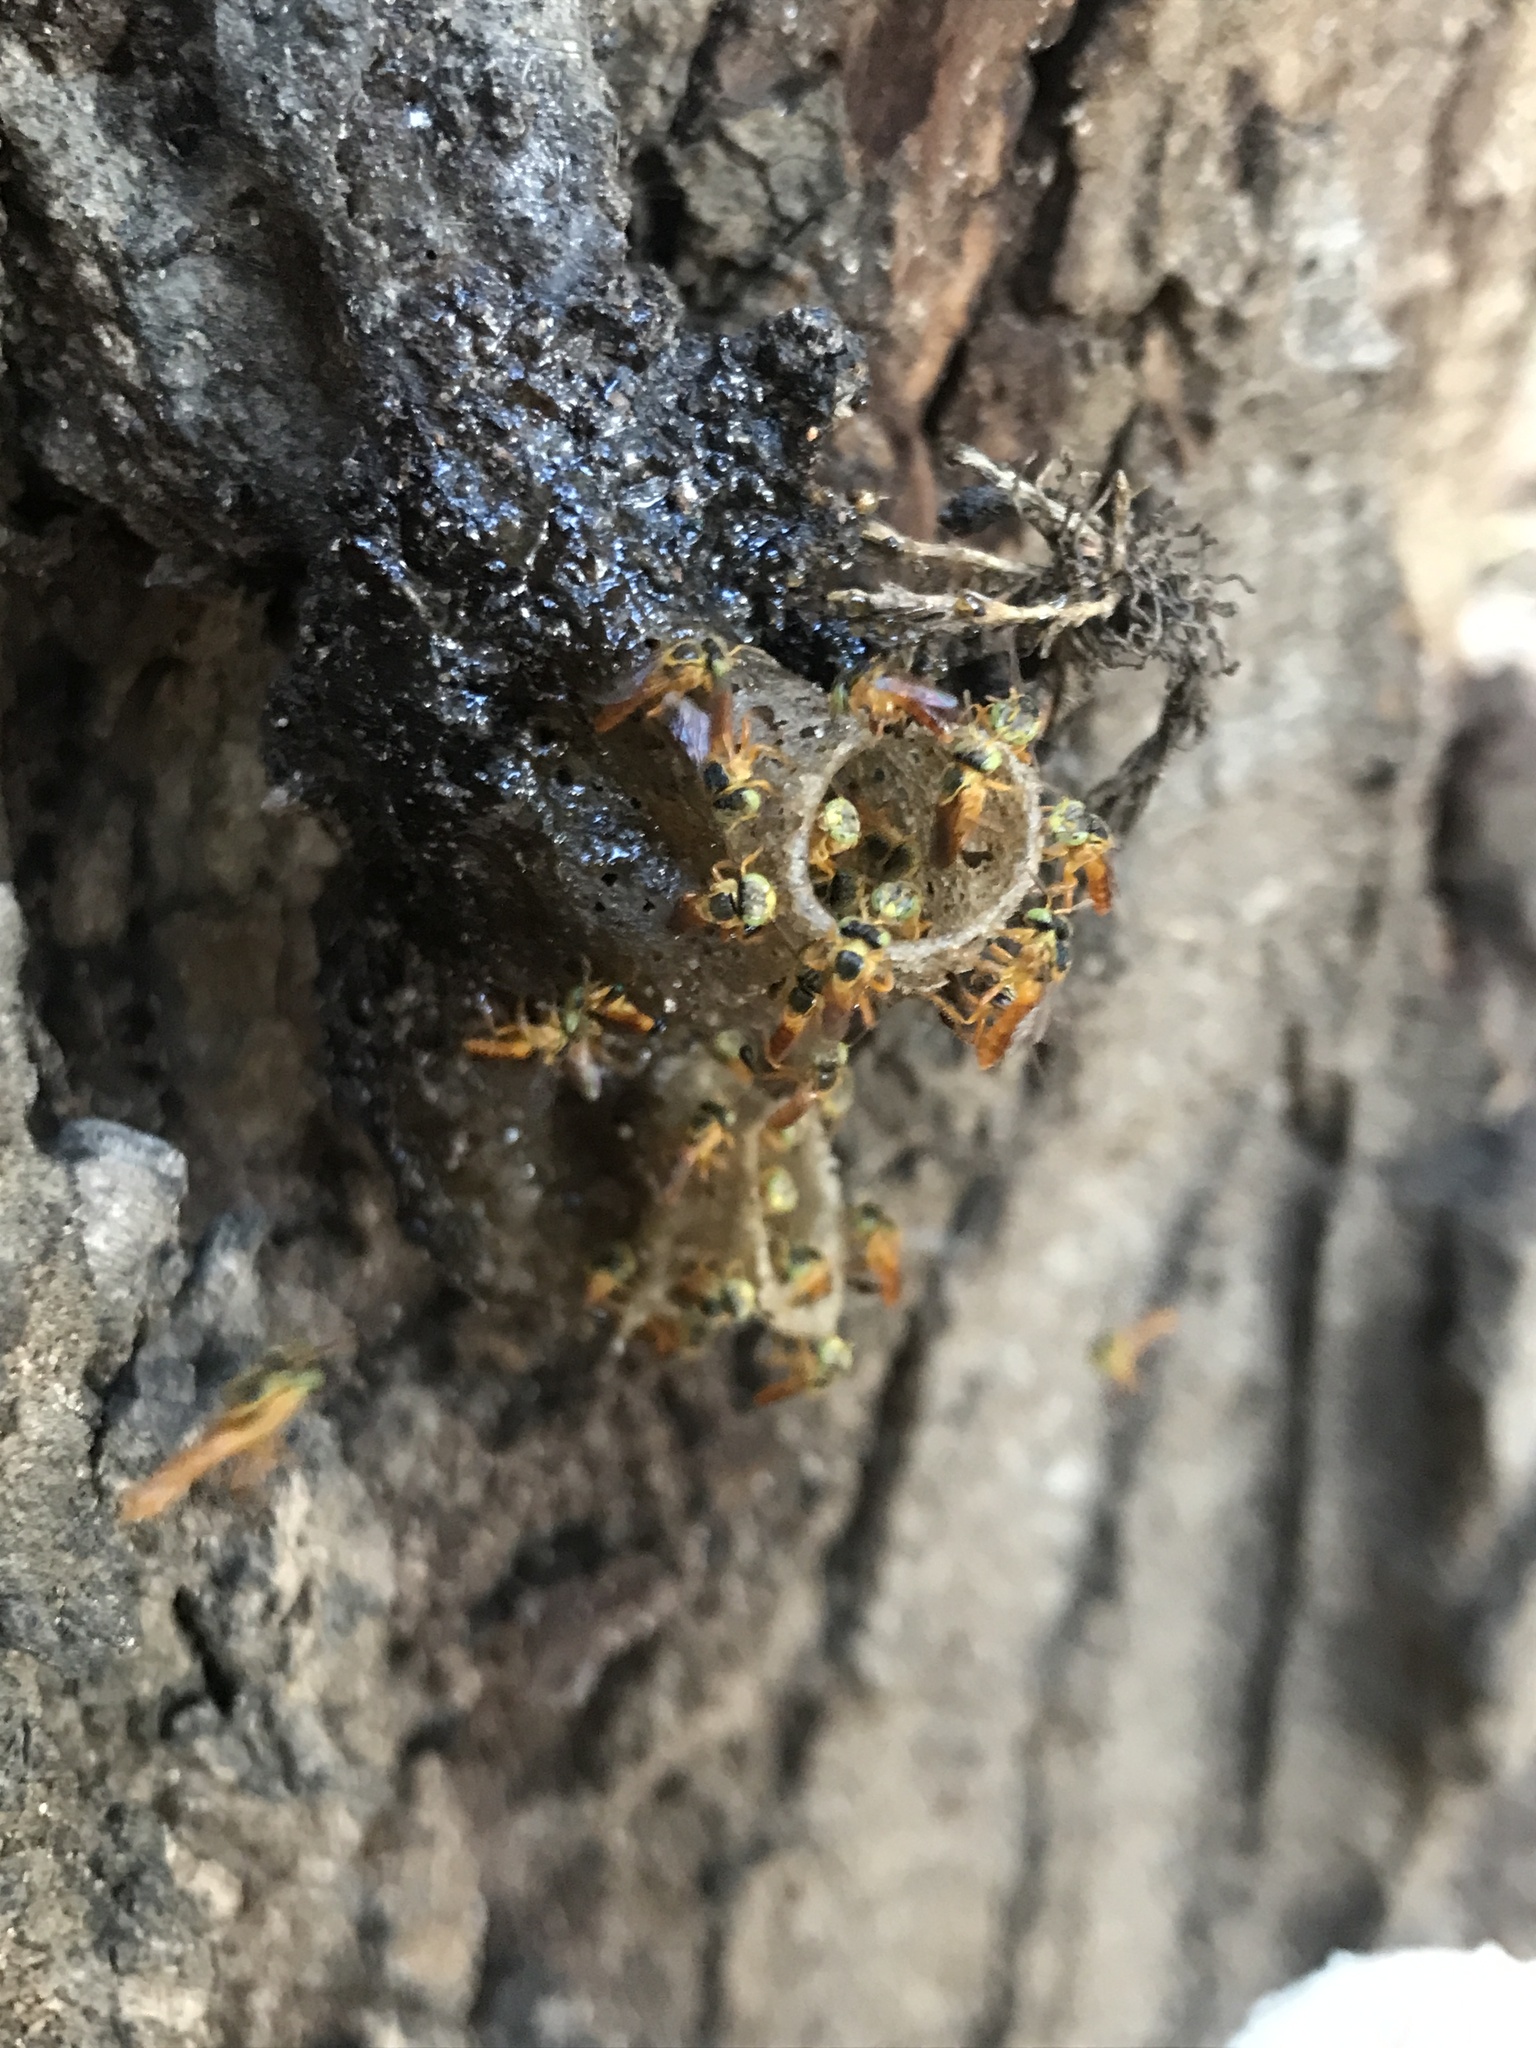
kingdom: Animalia
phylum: Arthropoda
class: Insecta
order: Hymenoptera
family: Apidae
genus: Tetragonisca
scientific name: Tetragonisca fiebrigi
